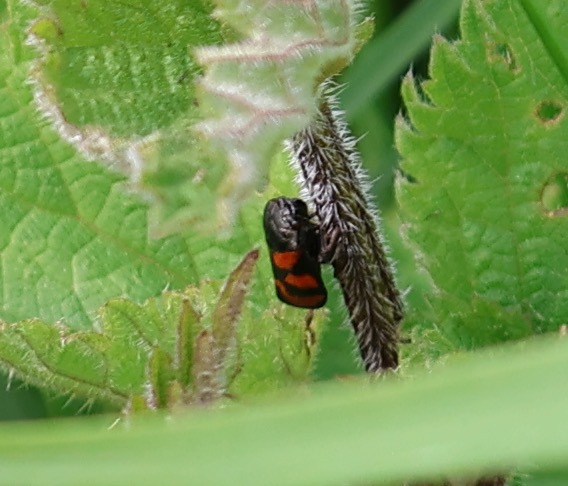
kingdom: Animalia
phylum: Arthropoda
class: Insecta
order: Hemiptera
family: Cercopidae
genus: Cercopis
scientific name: Cercopis vulnerata
